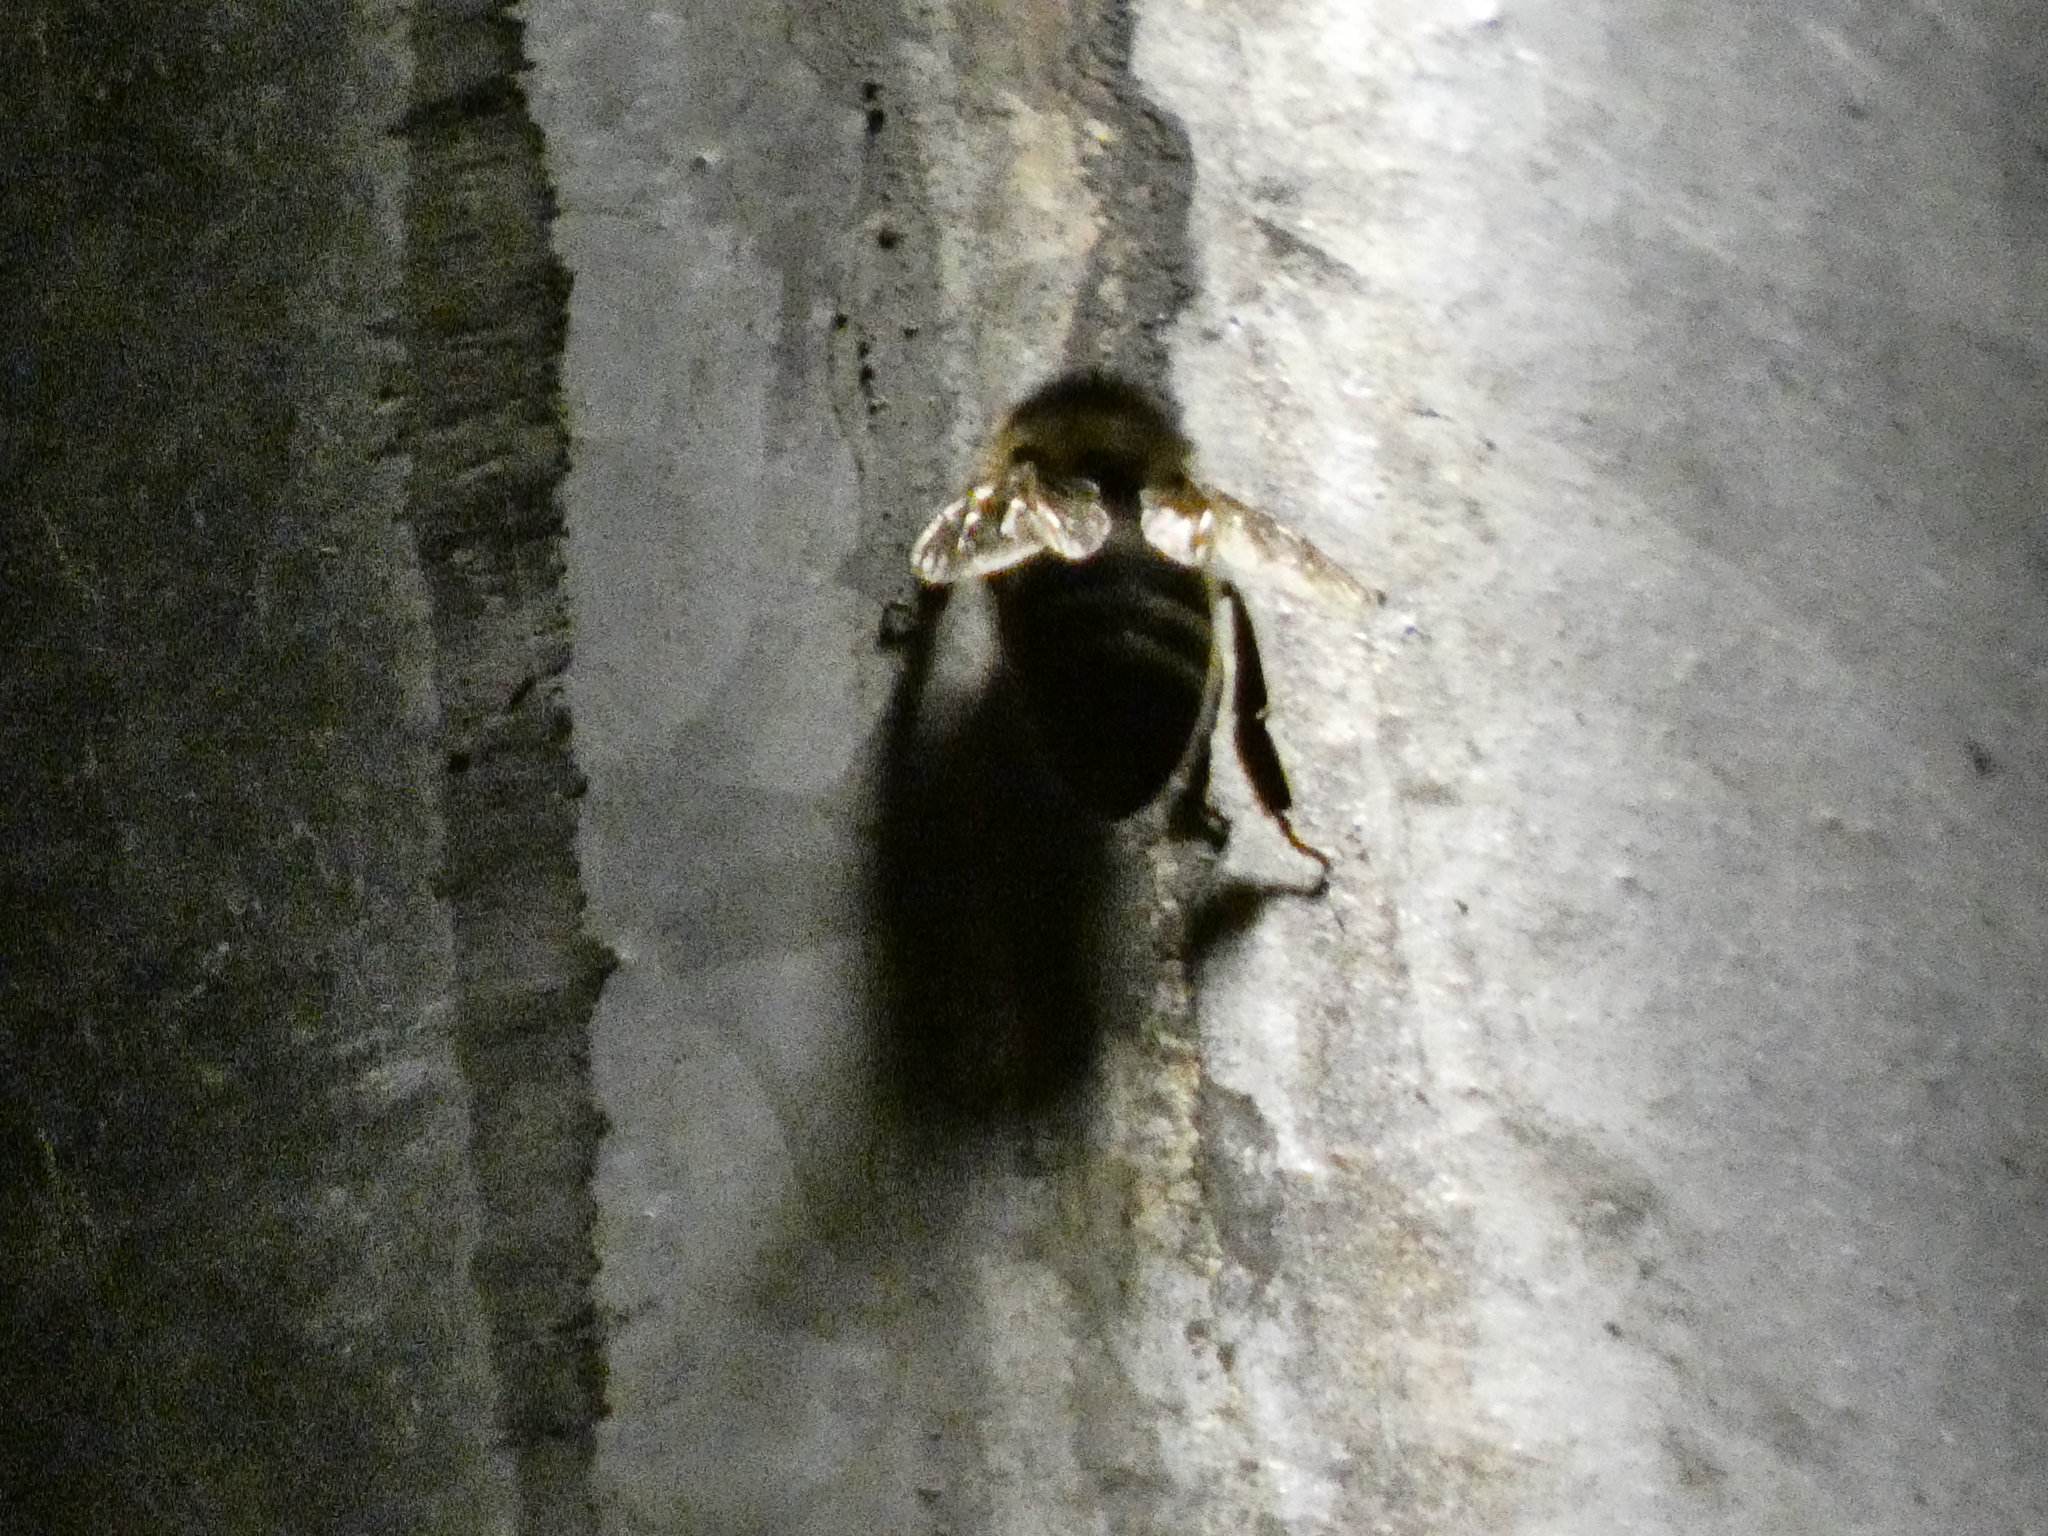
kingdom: Animalia
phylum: Arthropoda
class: Insecta
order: Hymenoptera
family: Apidae
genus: Apis
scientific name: Apis mellifera
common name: Honey bee
